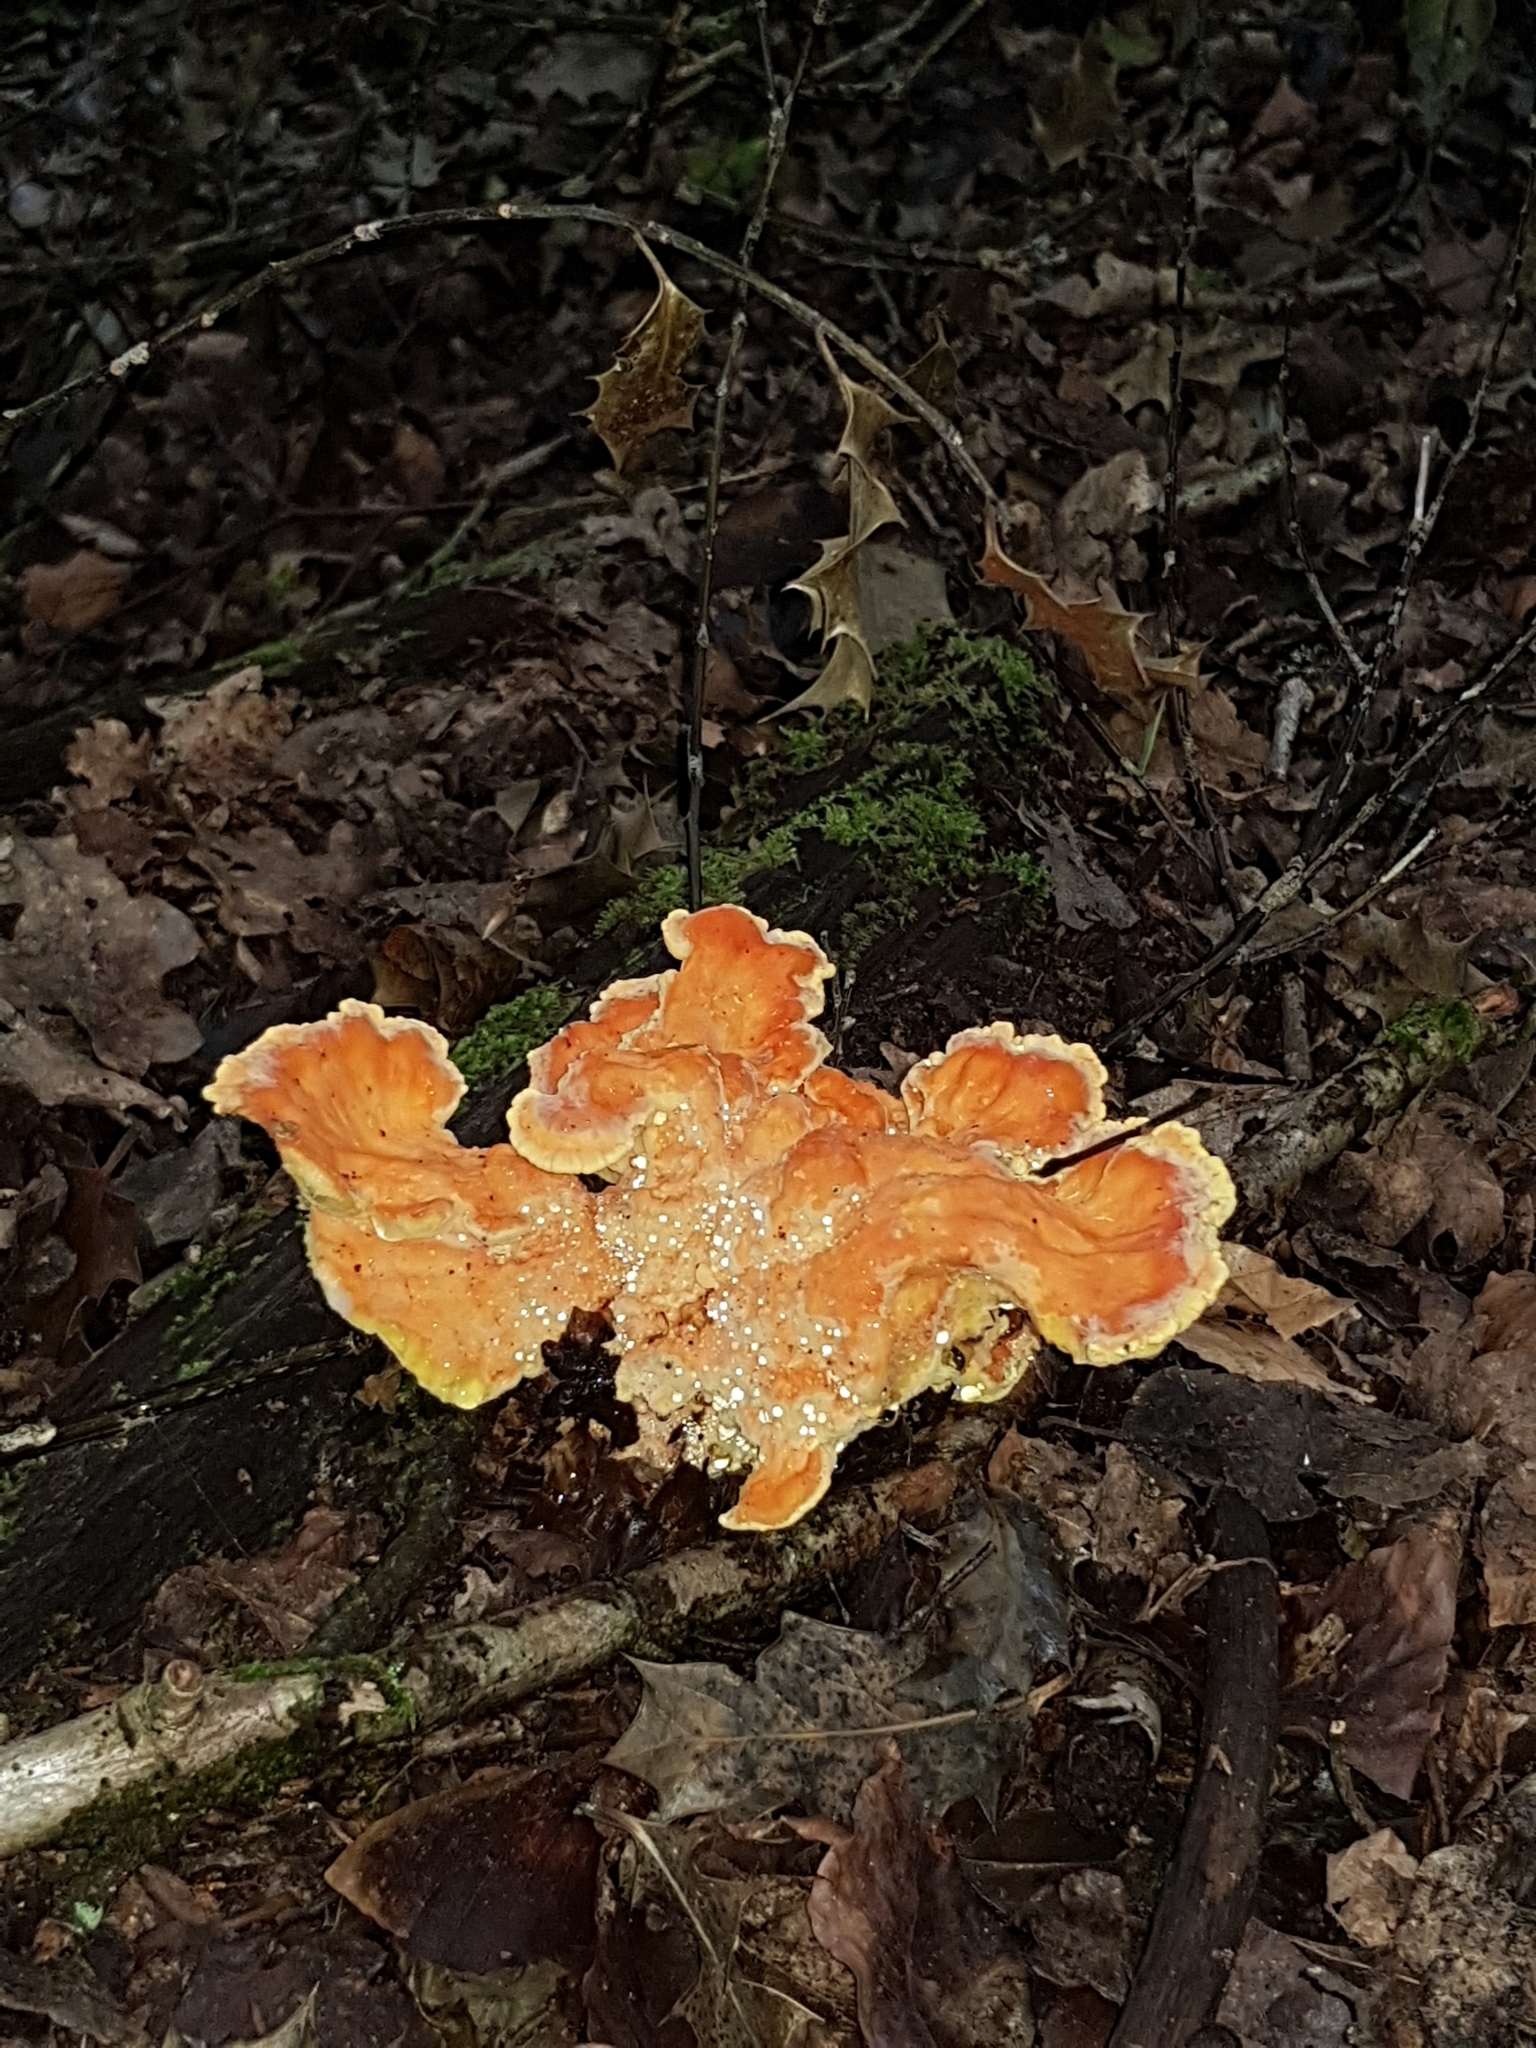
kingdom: Fungi
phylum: Basidiomycota
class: Agaricomycetes
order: Polyporales
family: Laetiporaceae
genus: Laetiporus
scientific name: Laetiporus sulphureus
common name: Chicken of the woods
